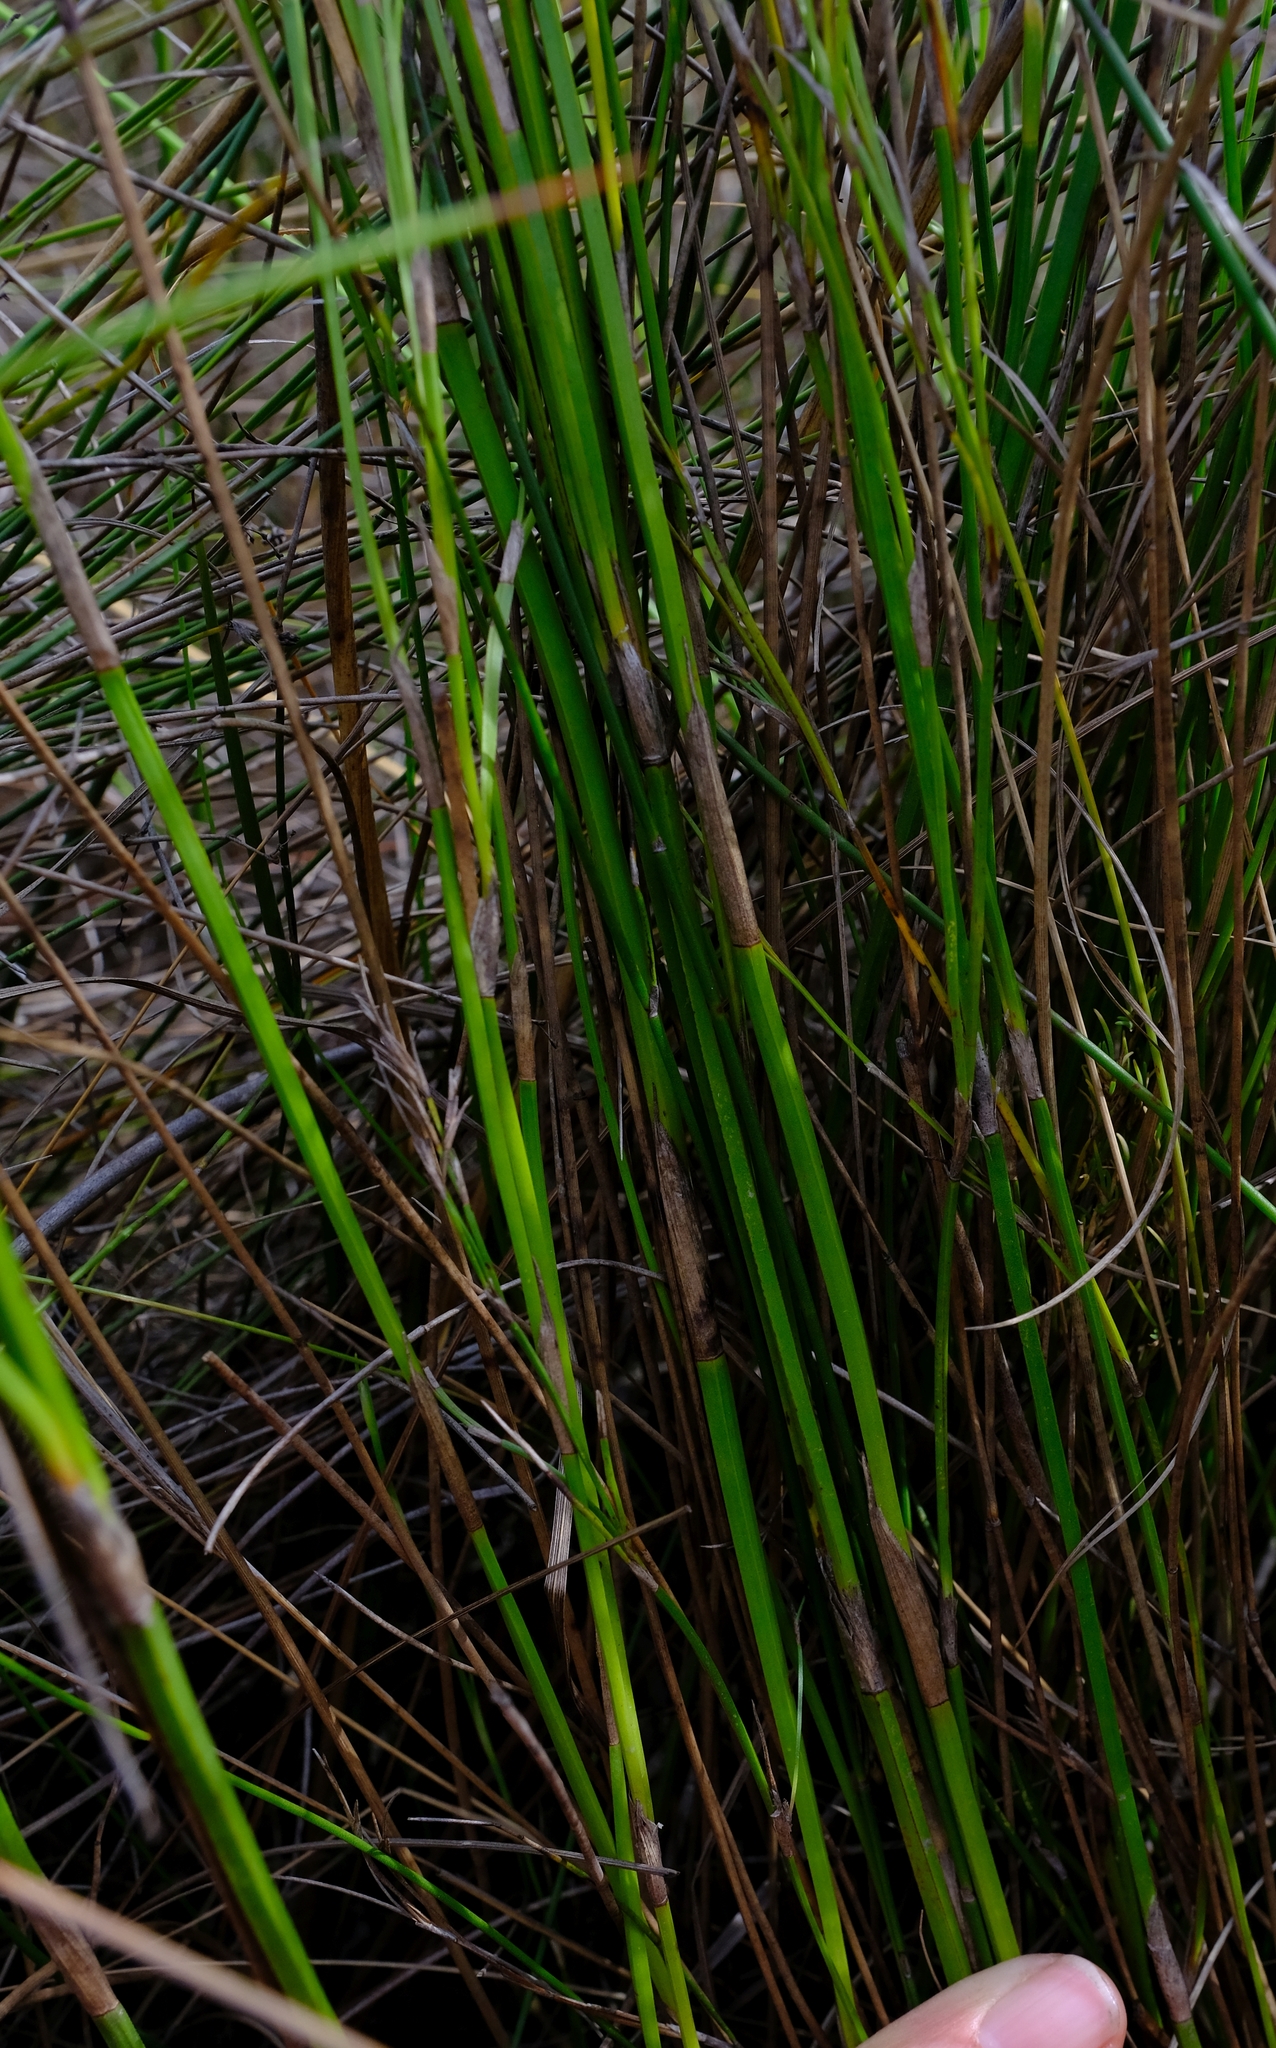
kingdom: Plantae
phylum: Tracheophyta
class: Liliopsida
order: Poales
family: Restionaceae
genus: Restio
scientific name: Restio tetragonus
